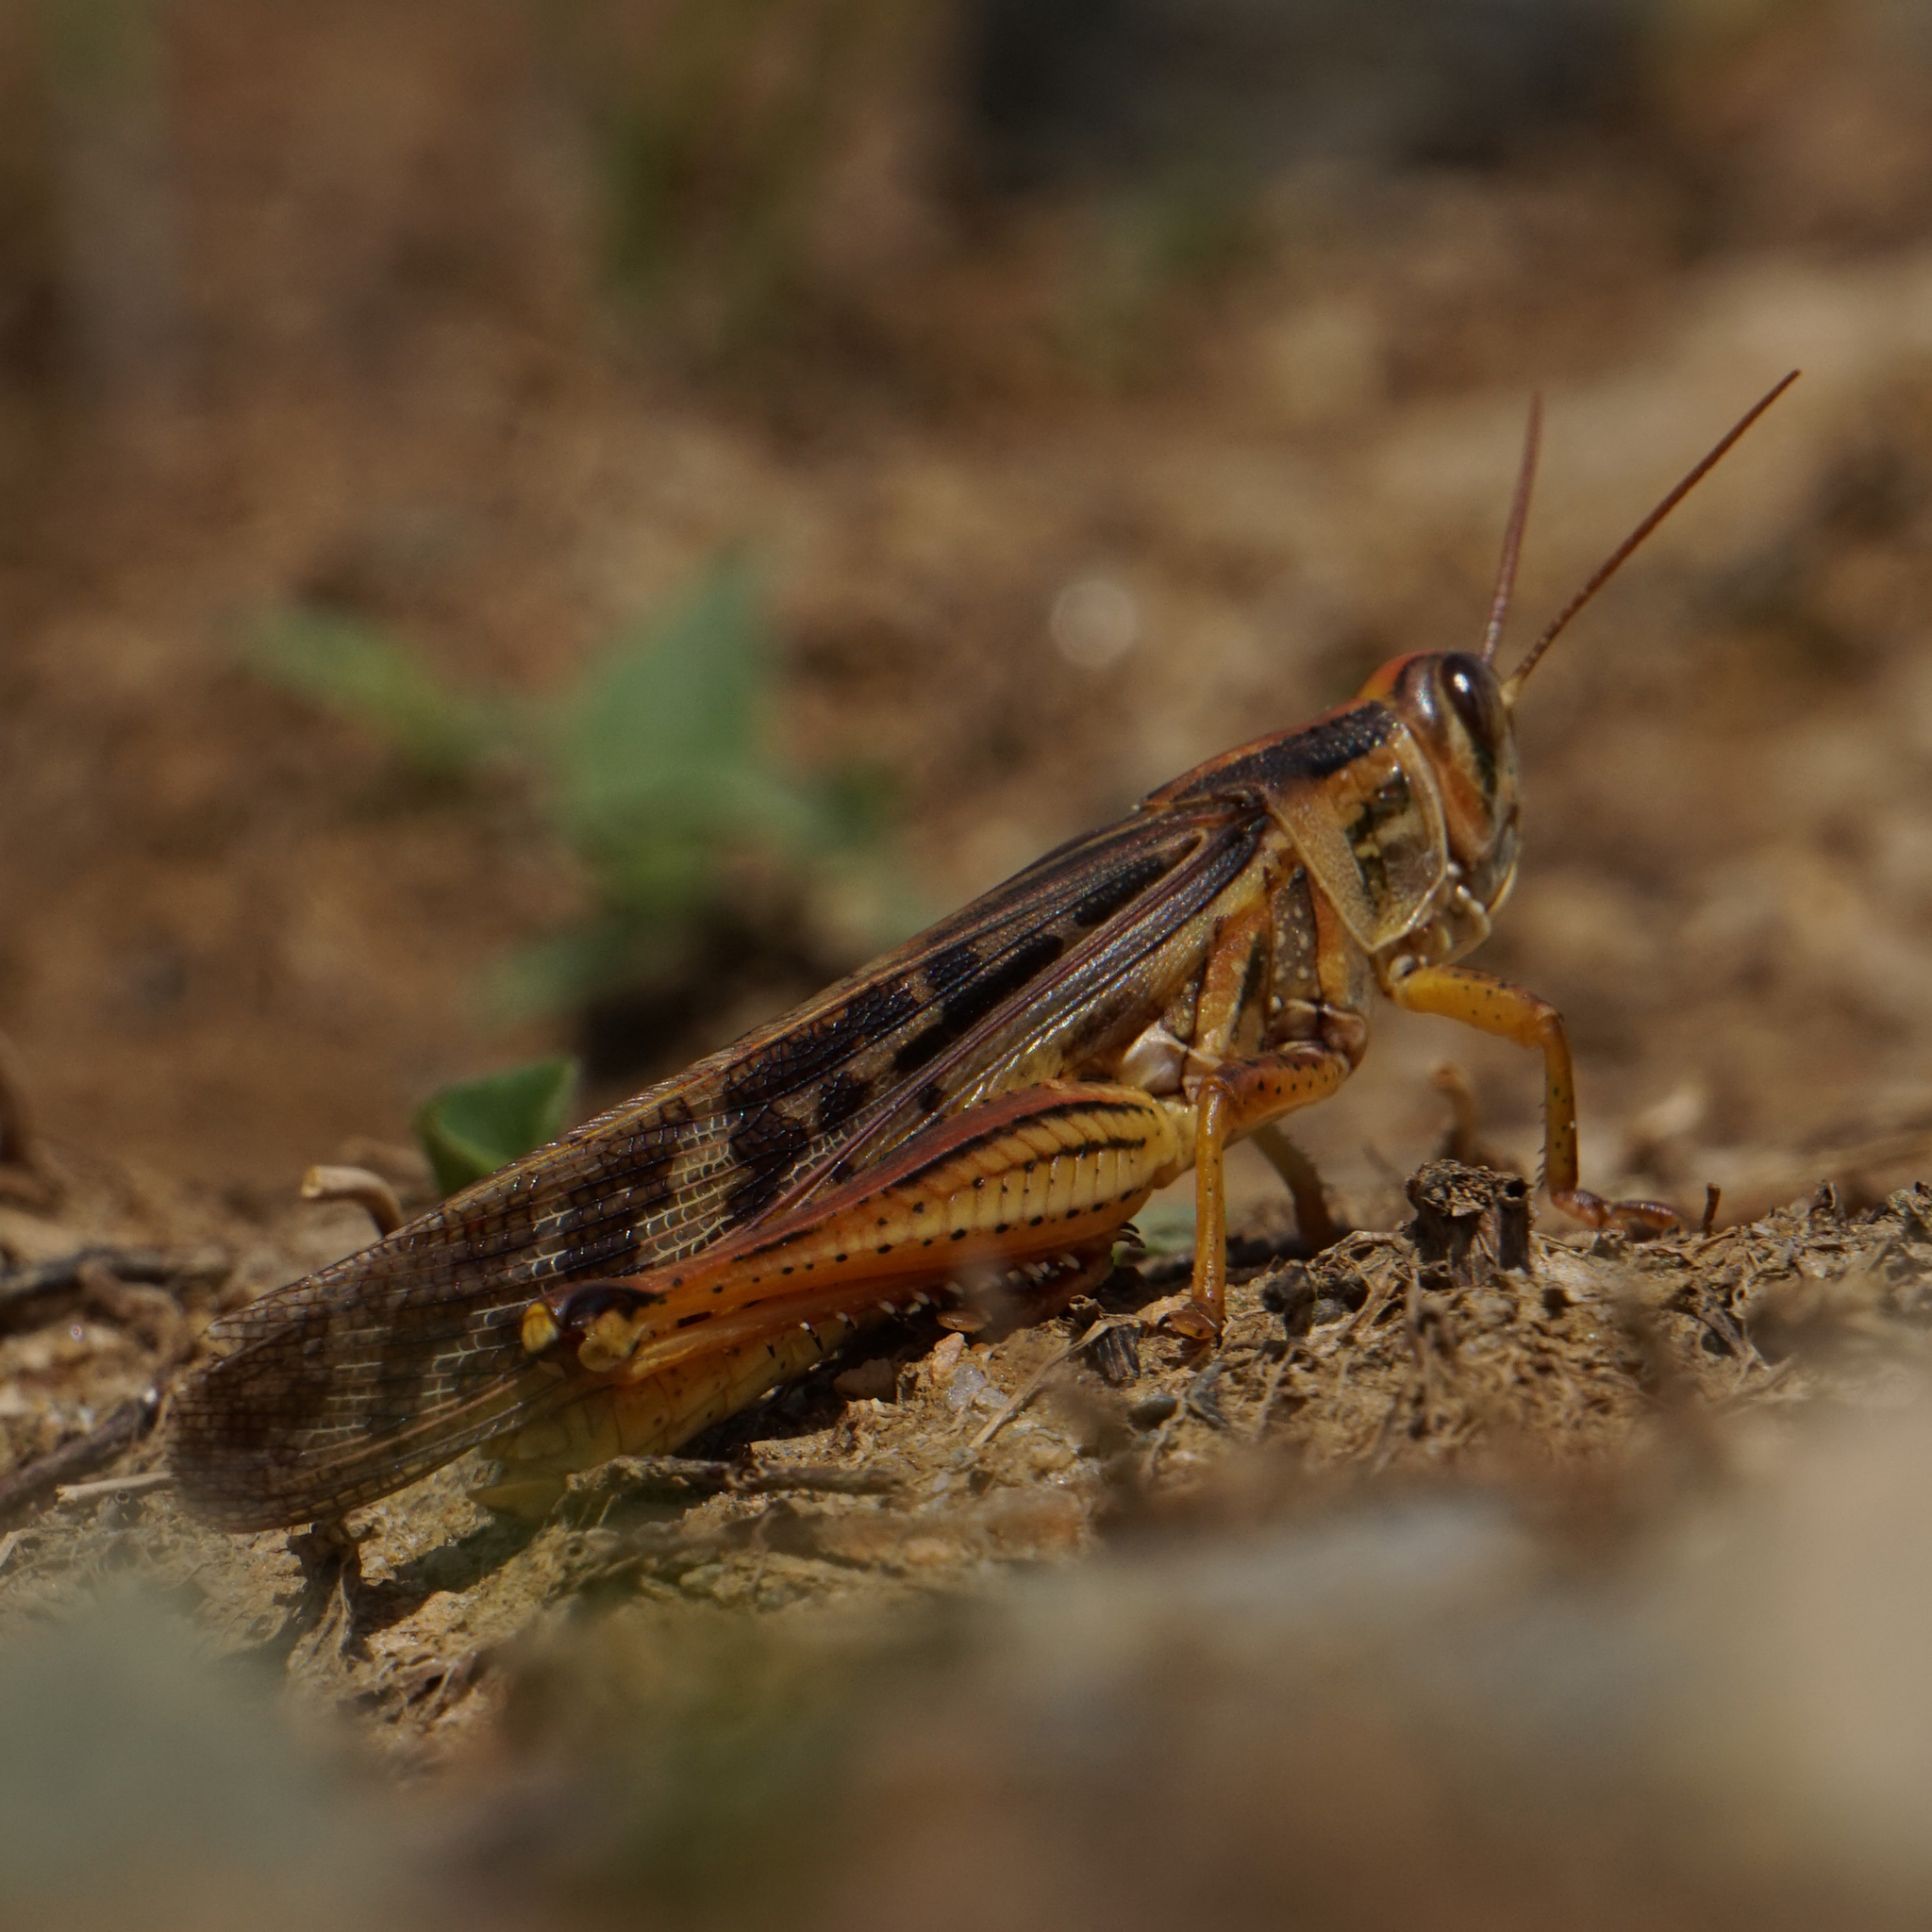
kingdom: Animalia
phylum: Arthropoda
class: Insecta
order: Orthoptera
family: Acrididae
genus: Schistocerca
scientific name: Schistocerca americana
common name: American bird locust
